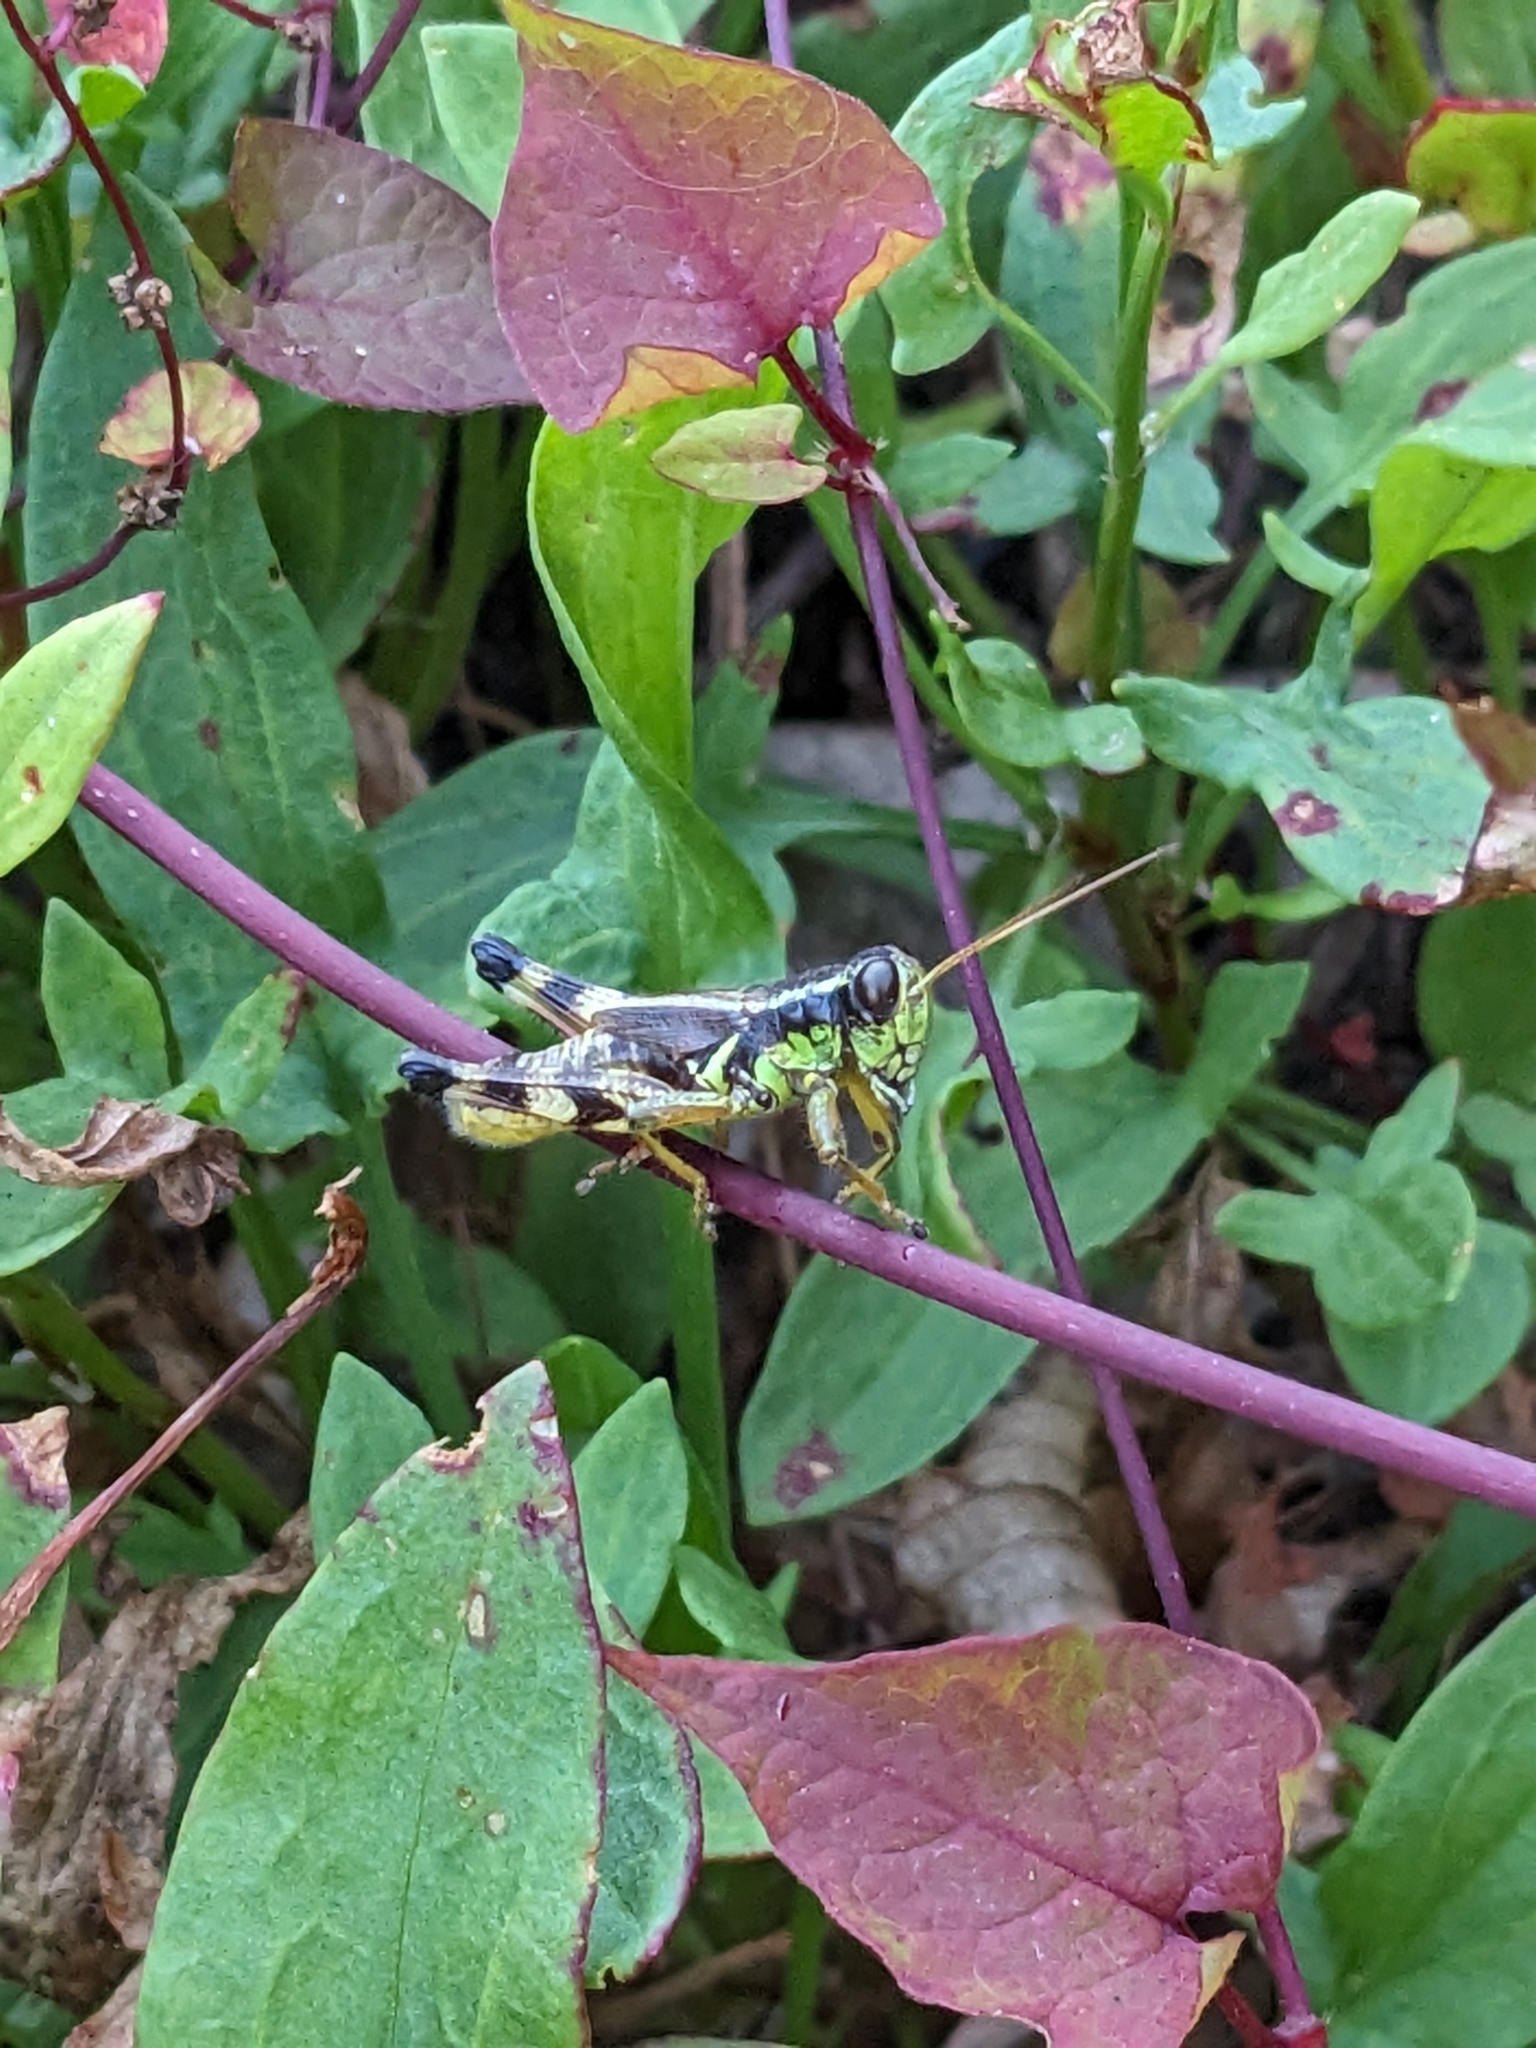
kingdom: Animalia
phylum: Arthropoda
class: Insecta
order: Orthoptera
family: Acrididae
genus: Melanoplus
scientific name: Melanoplus walshii
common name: Walsh's locust
